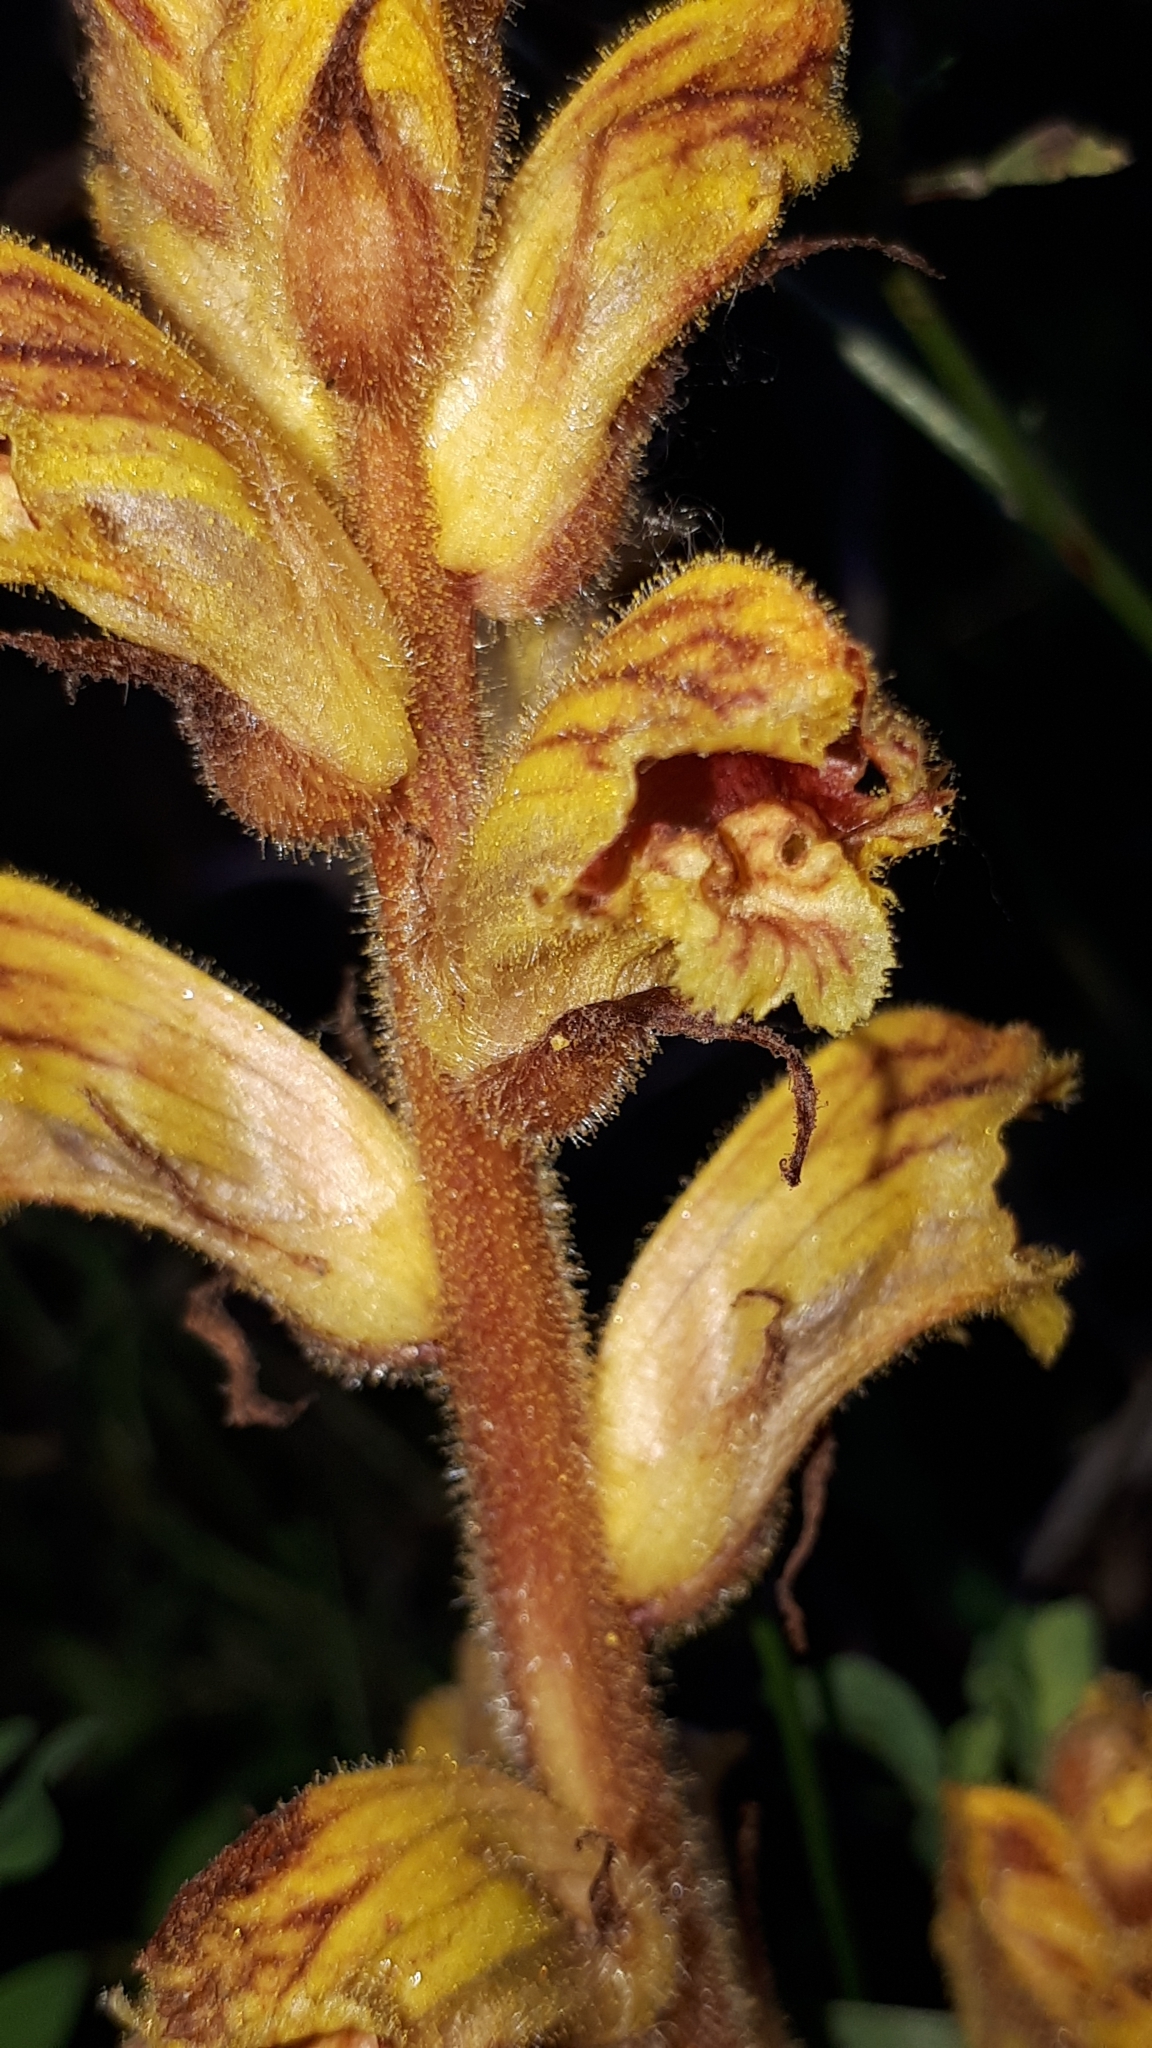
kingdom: Plantae
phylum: Tracheophyta
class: Magnoliopsida
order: Lamiales
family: Orobanchaceae
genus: Orobanche
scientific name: Orobanche gracilis
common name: Slender broomrape
